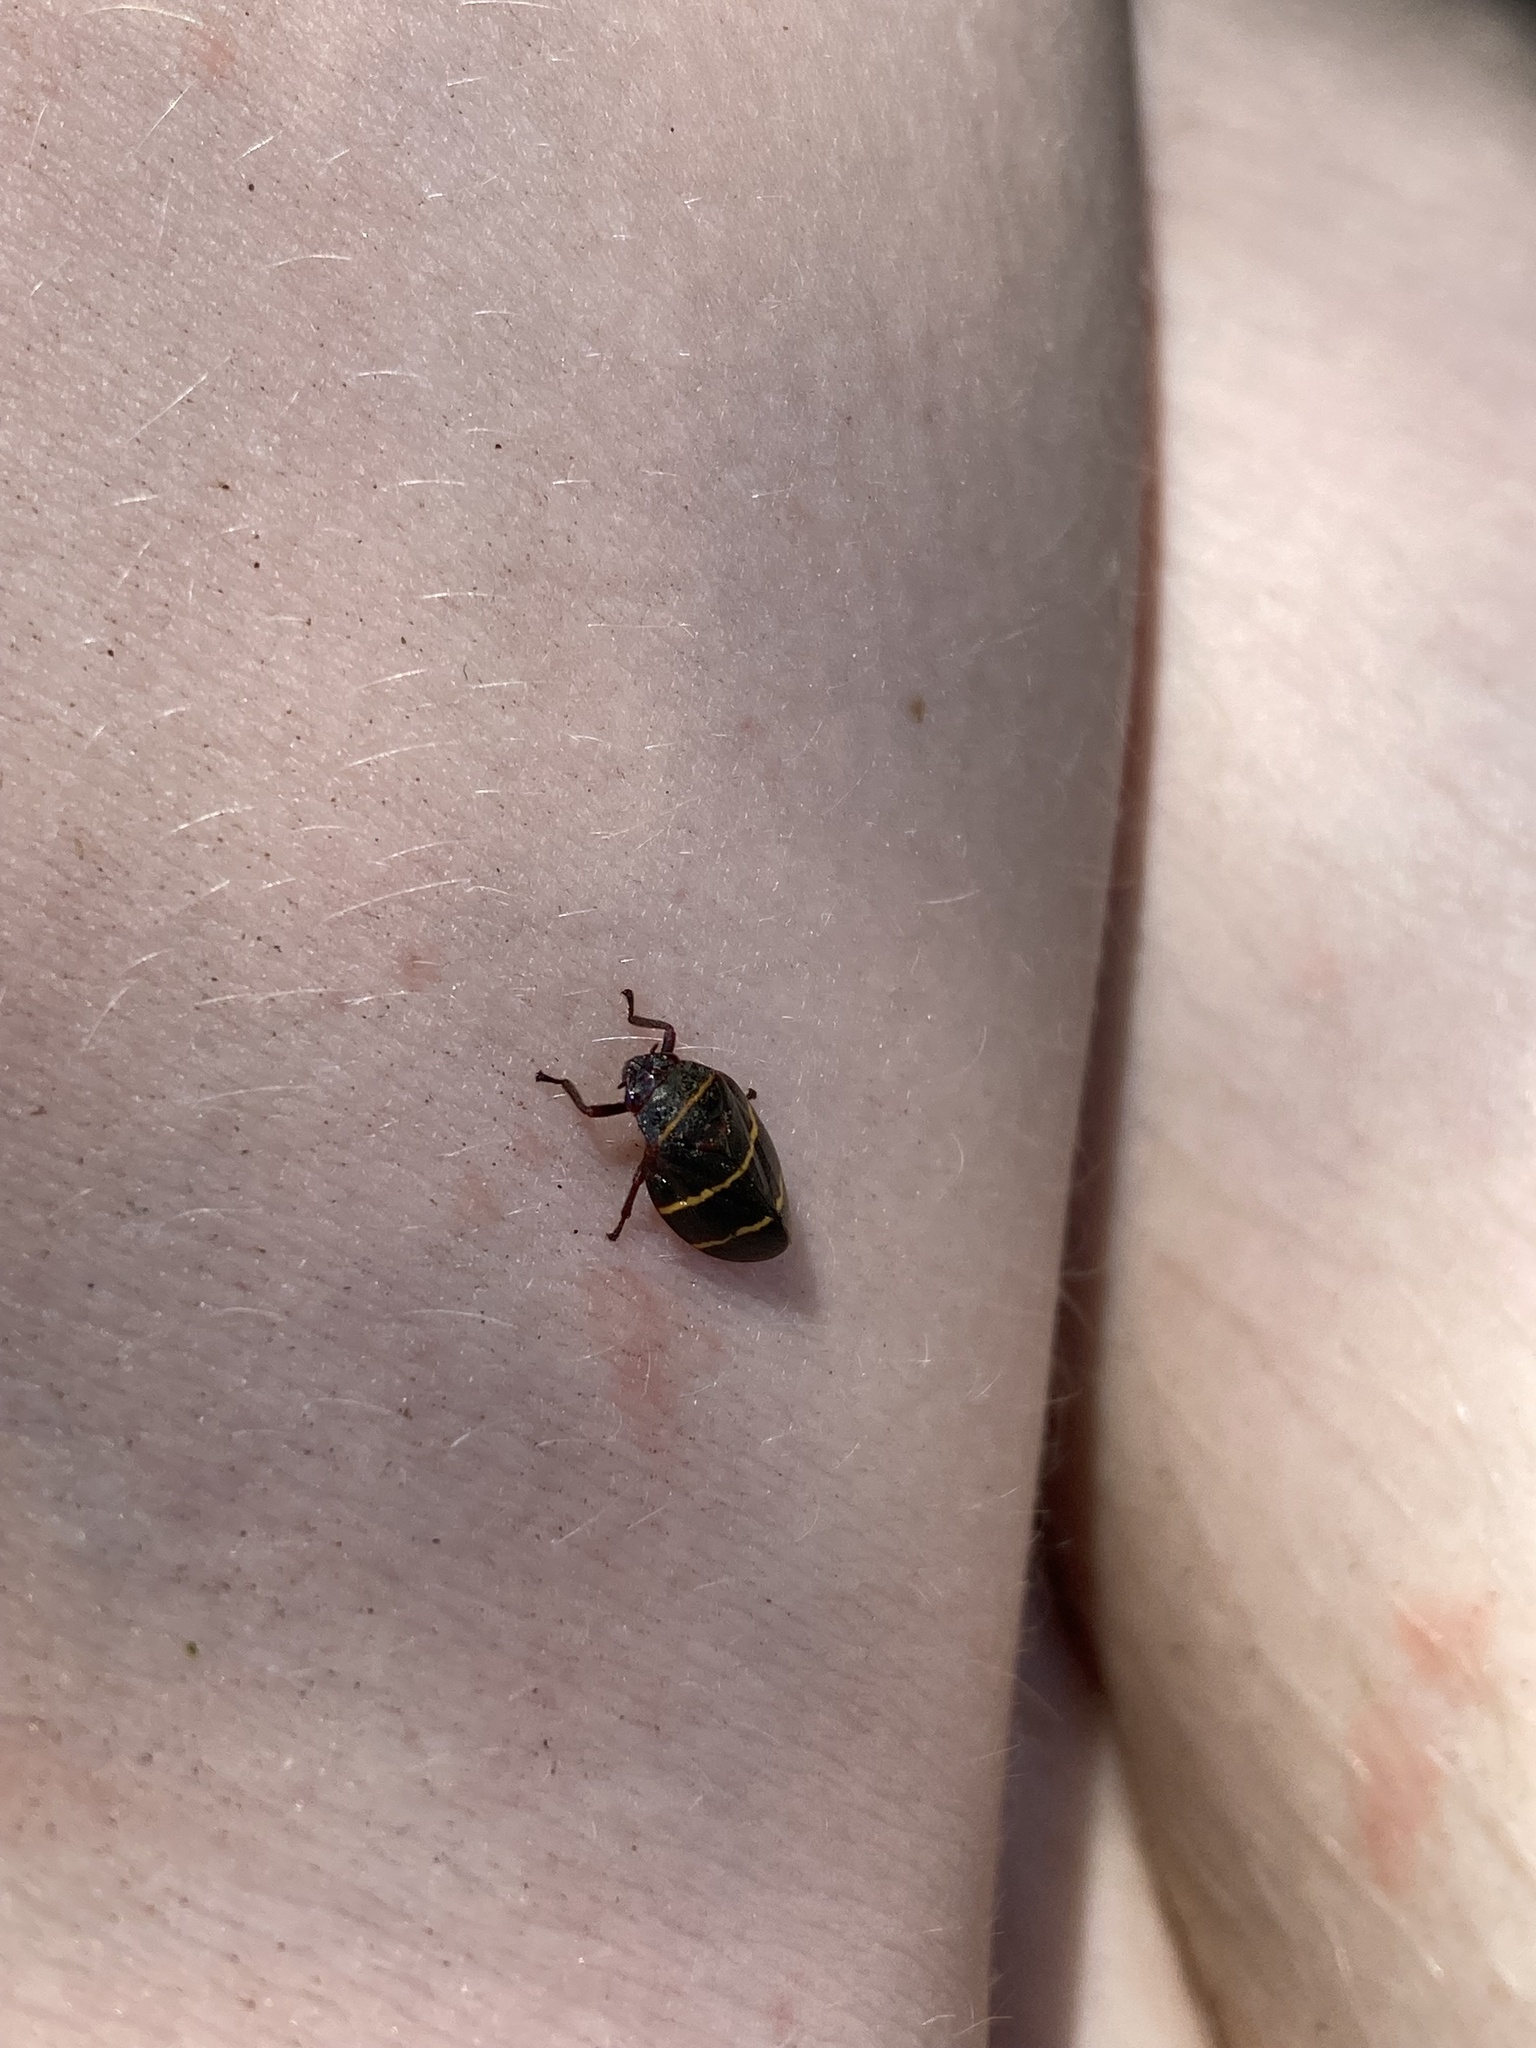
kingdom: Animalia
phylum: Arthropoda
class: Insecta
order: Hemiptera
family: Cercopidae
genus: Prosapia
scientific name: Prosapia bicincta
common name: Twolined spittlebug
